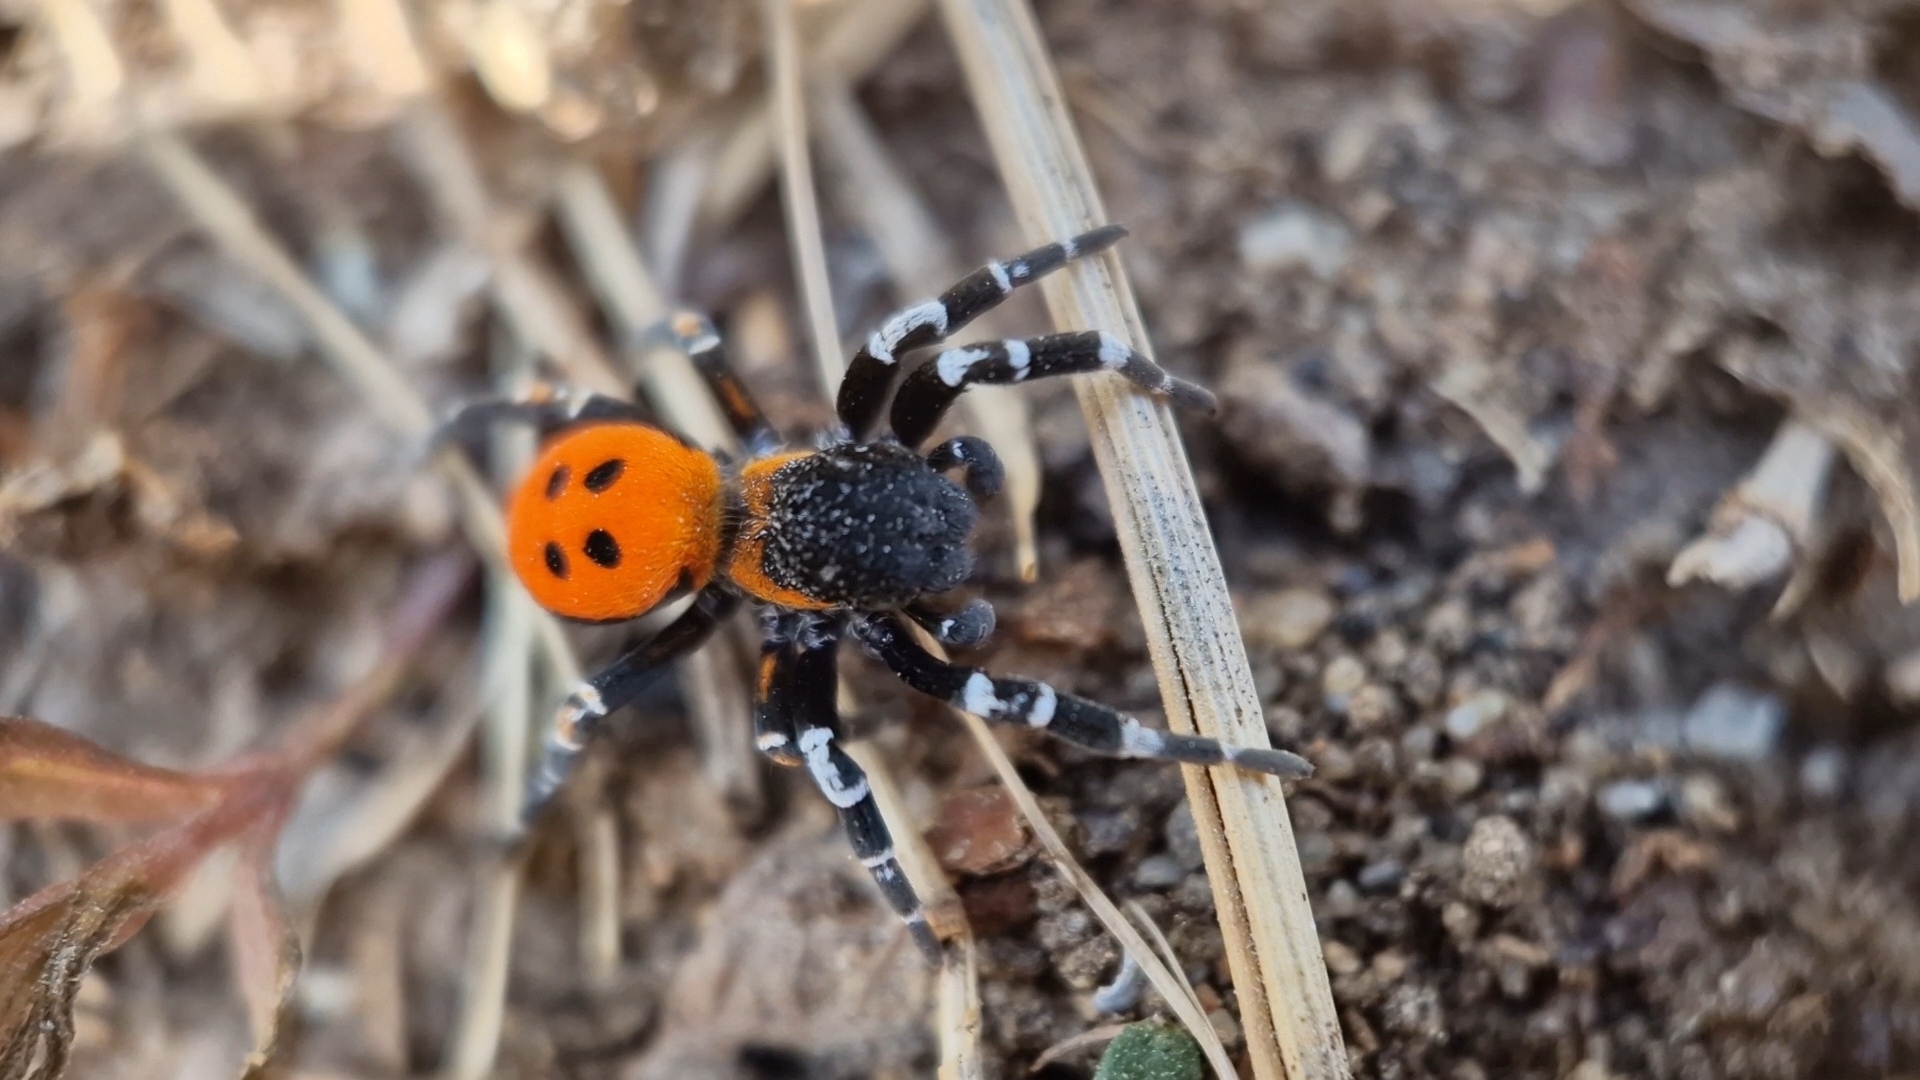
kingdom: Animalia
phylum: Arthropoda
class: Arachnida
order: Araneae
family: Eresidae
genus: Eresus
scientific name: Eresus sandaliatus
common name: Ladybird spider
